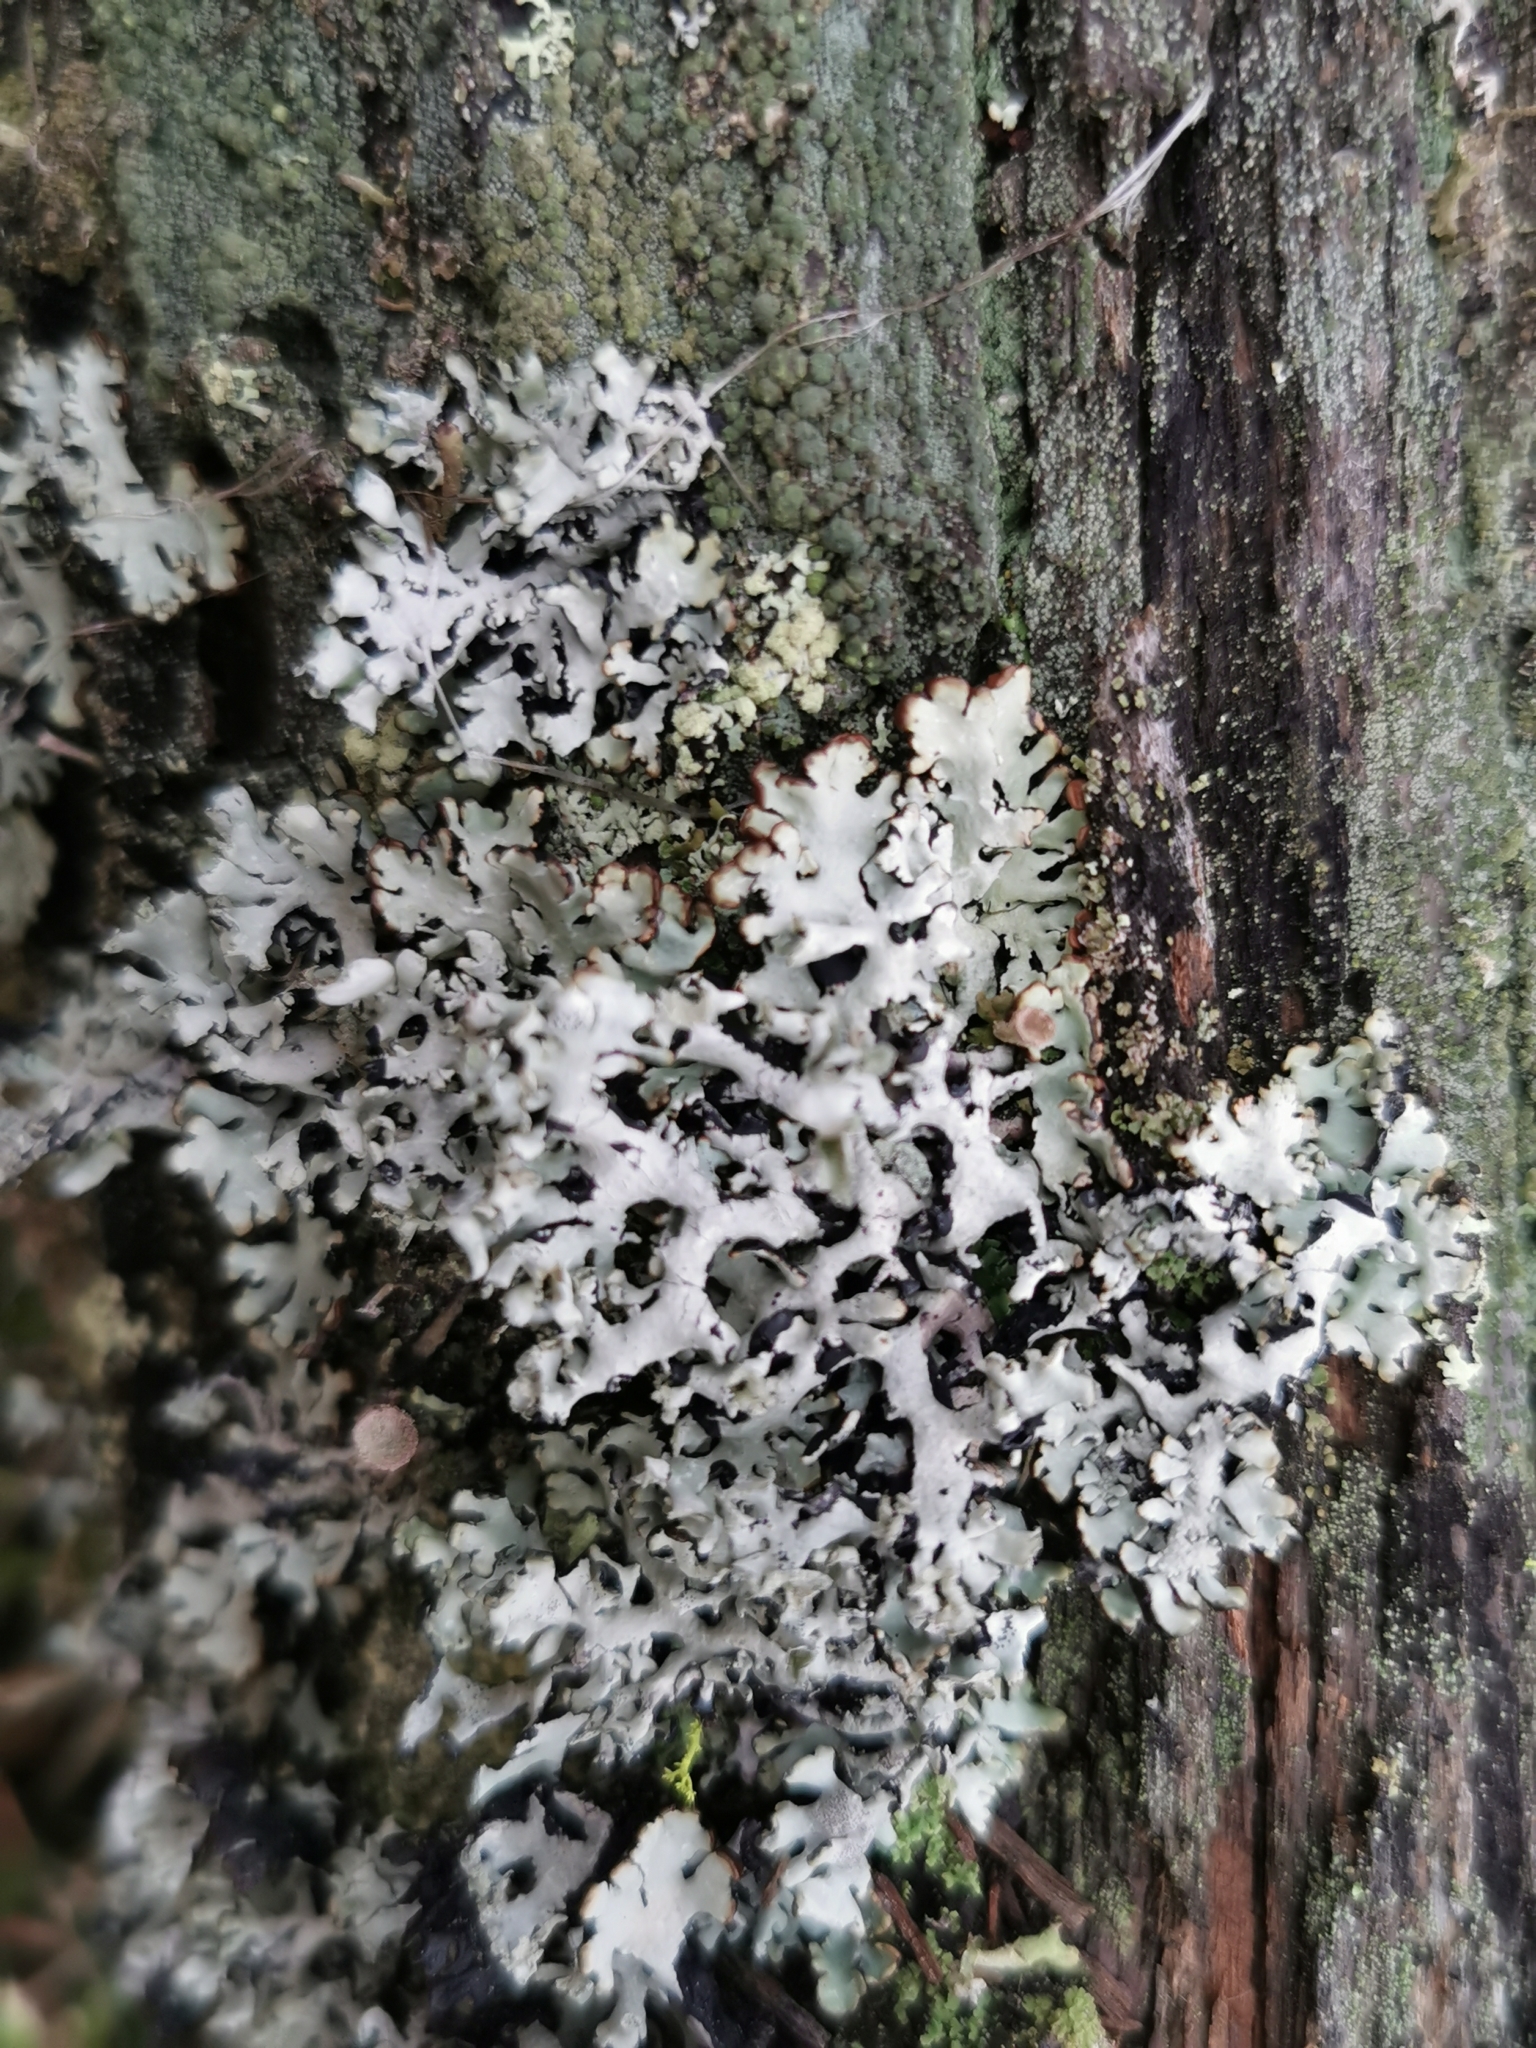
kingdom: Fungi
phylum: Ascomycota
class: Lecanoromycetes
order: Lecanorales
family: Parmeliaceae
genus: Hypogymnia
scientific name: Hypogymnia physodes
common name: Dark crottle
